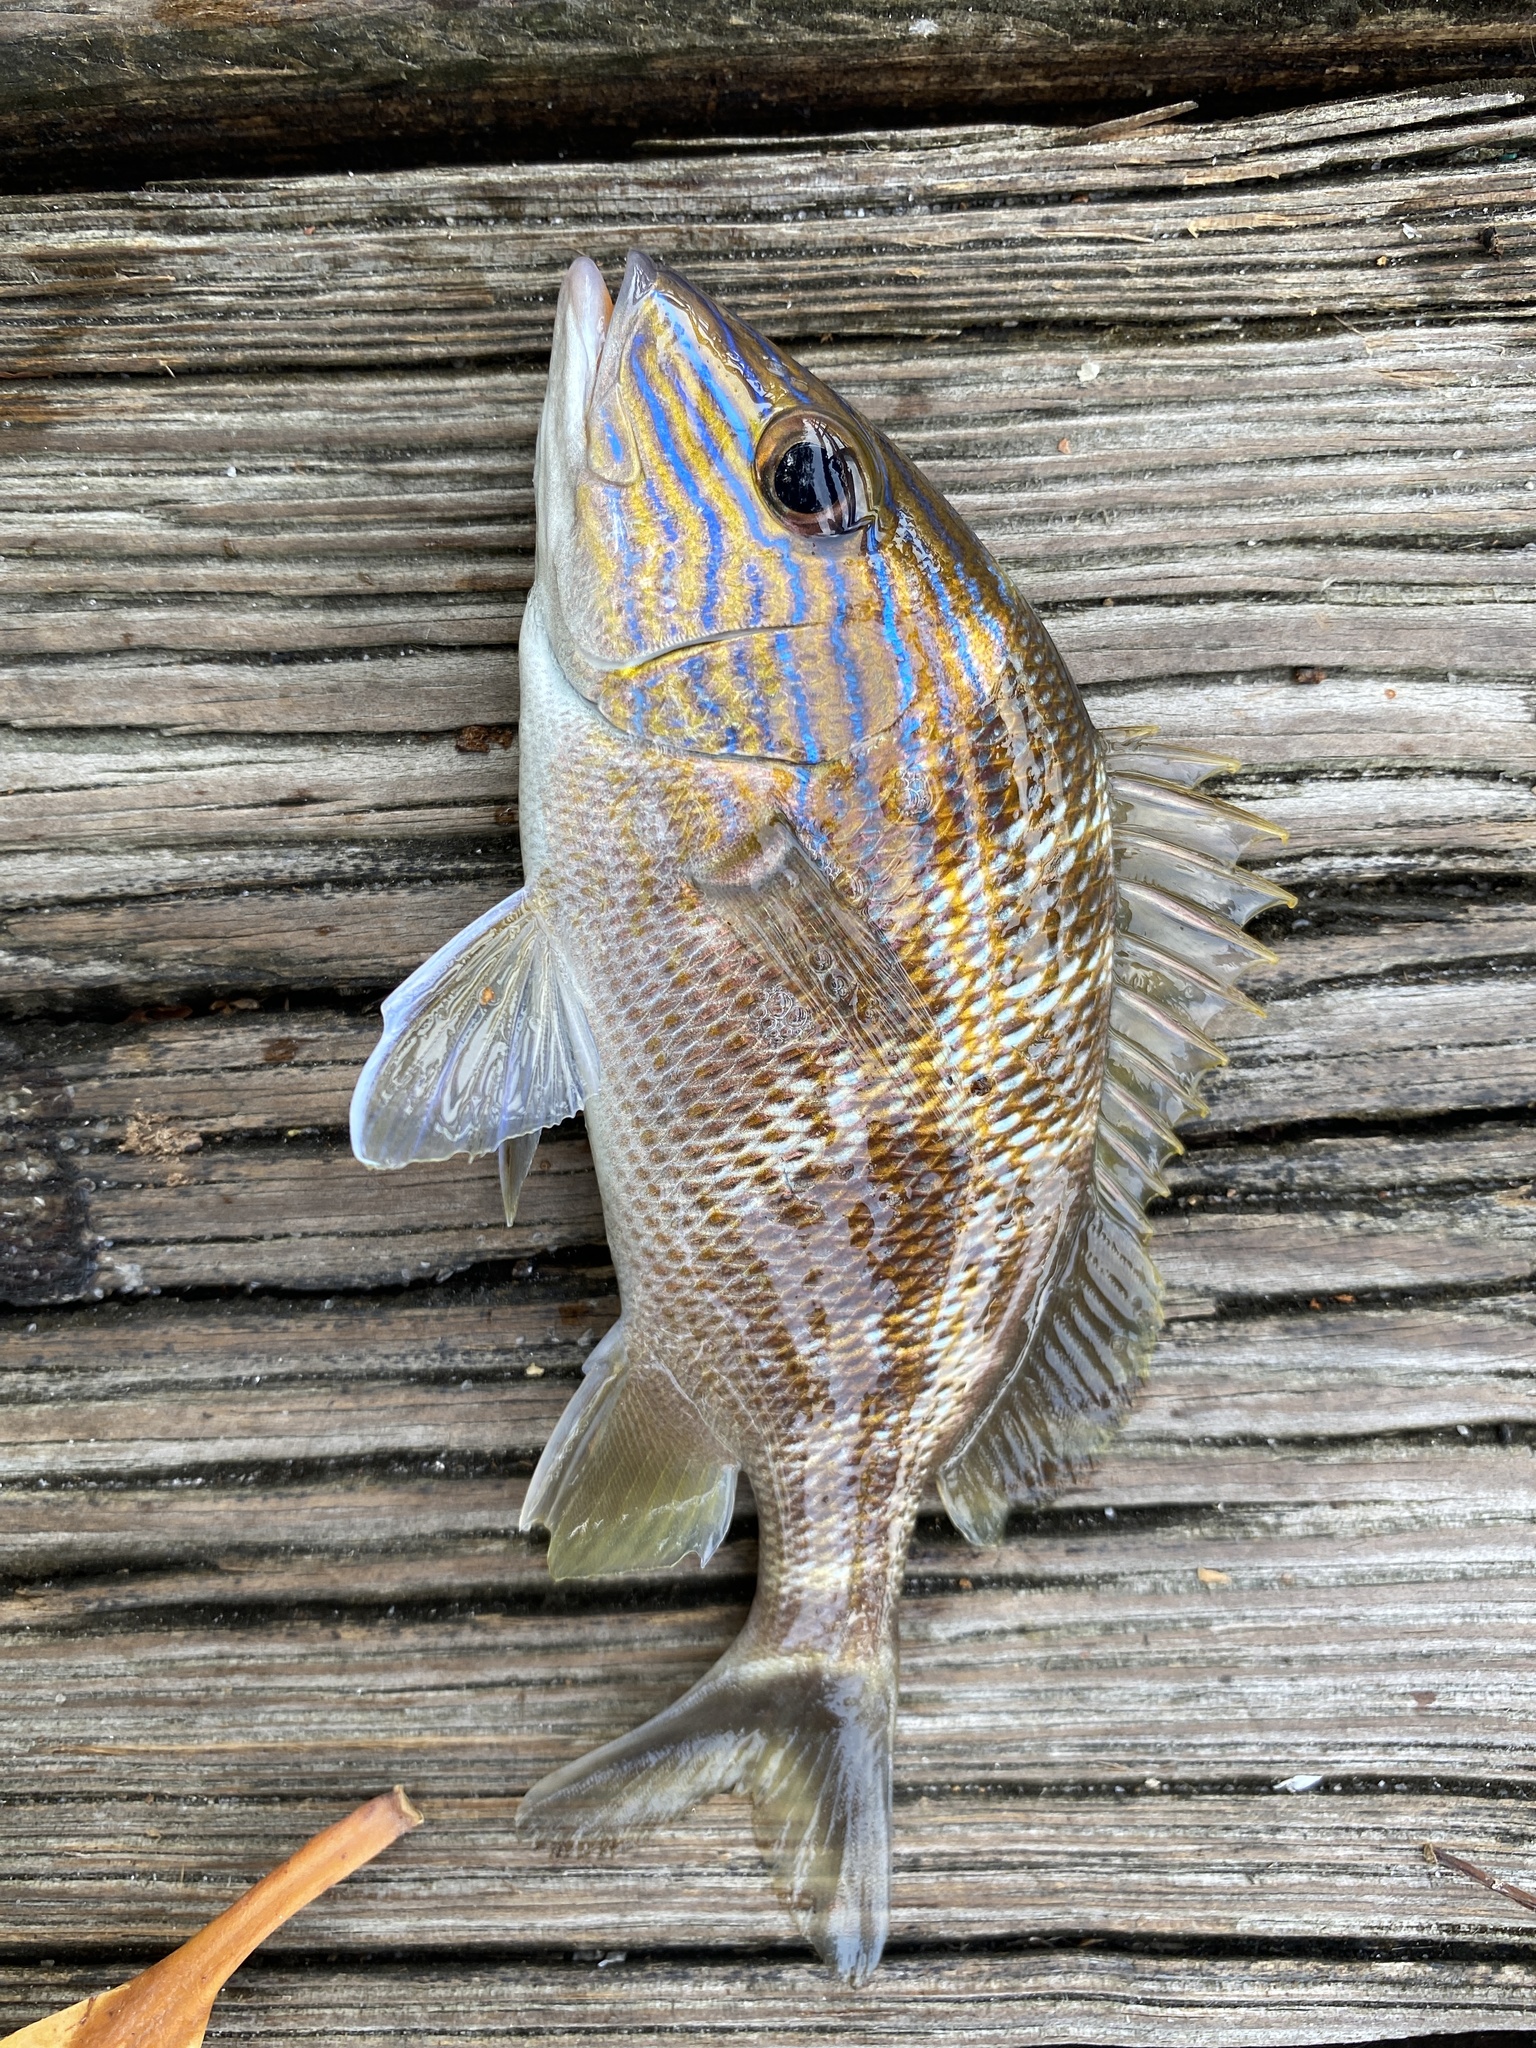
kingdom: Animalia
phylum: Chordata
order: Perciformes
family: Haemulidae
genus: Haemulon
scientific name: Haemulon plumierii
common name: White grunt
